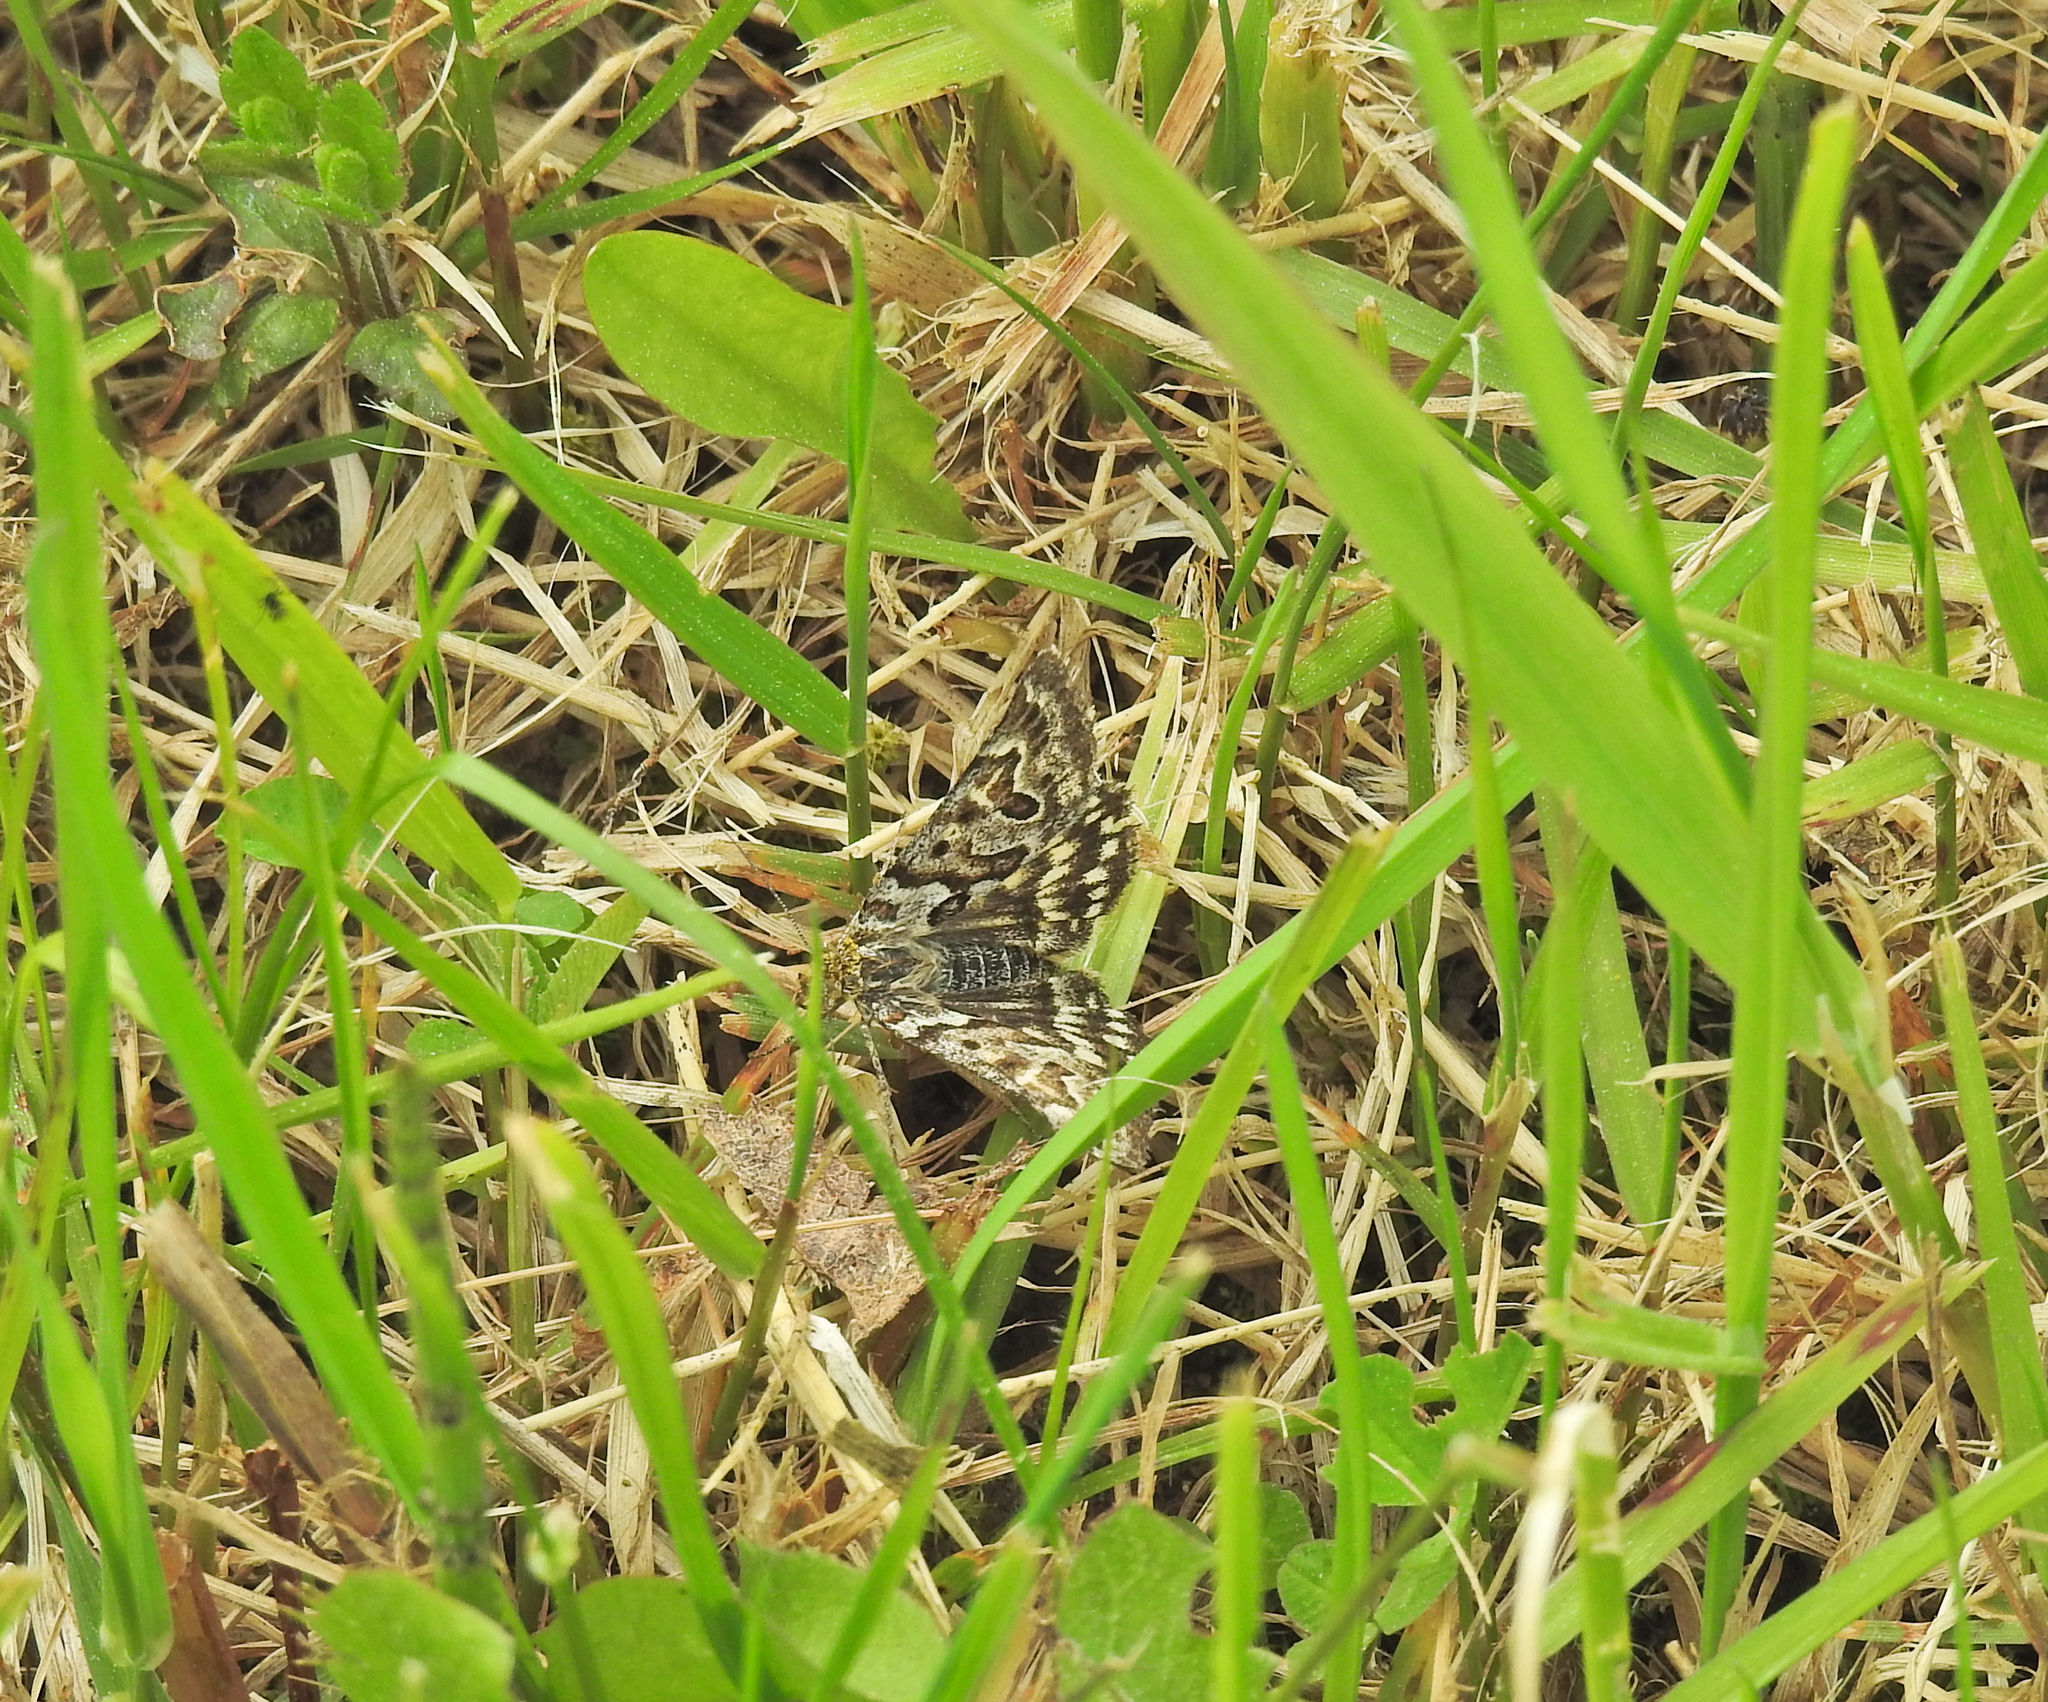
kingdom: Animalia
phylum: Arthropoda
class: Insecta
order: Lepidoptera
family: Erebidae
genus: Callistege
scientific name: Callistege mi
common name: Mother shipton
